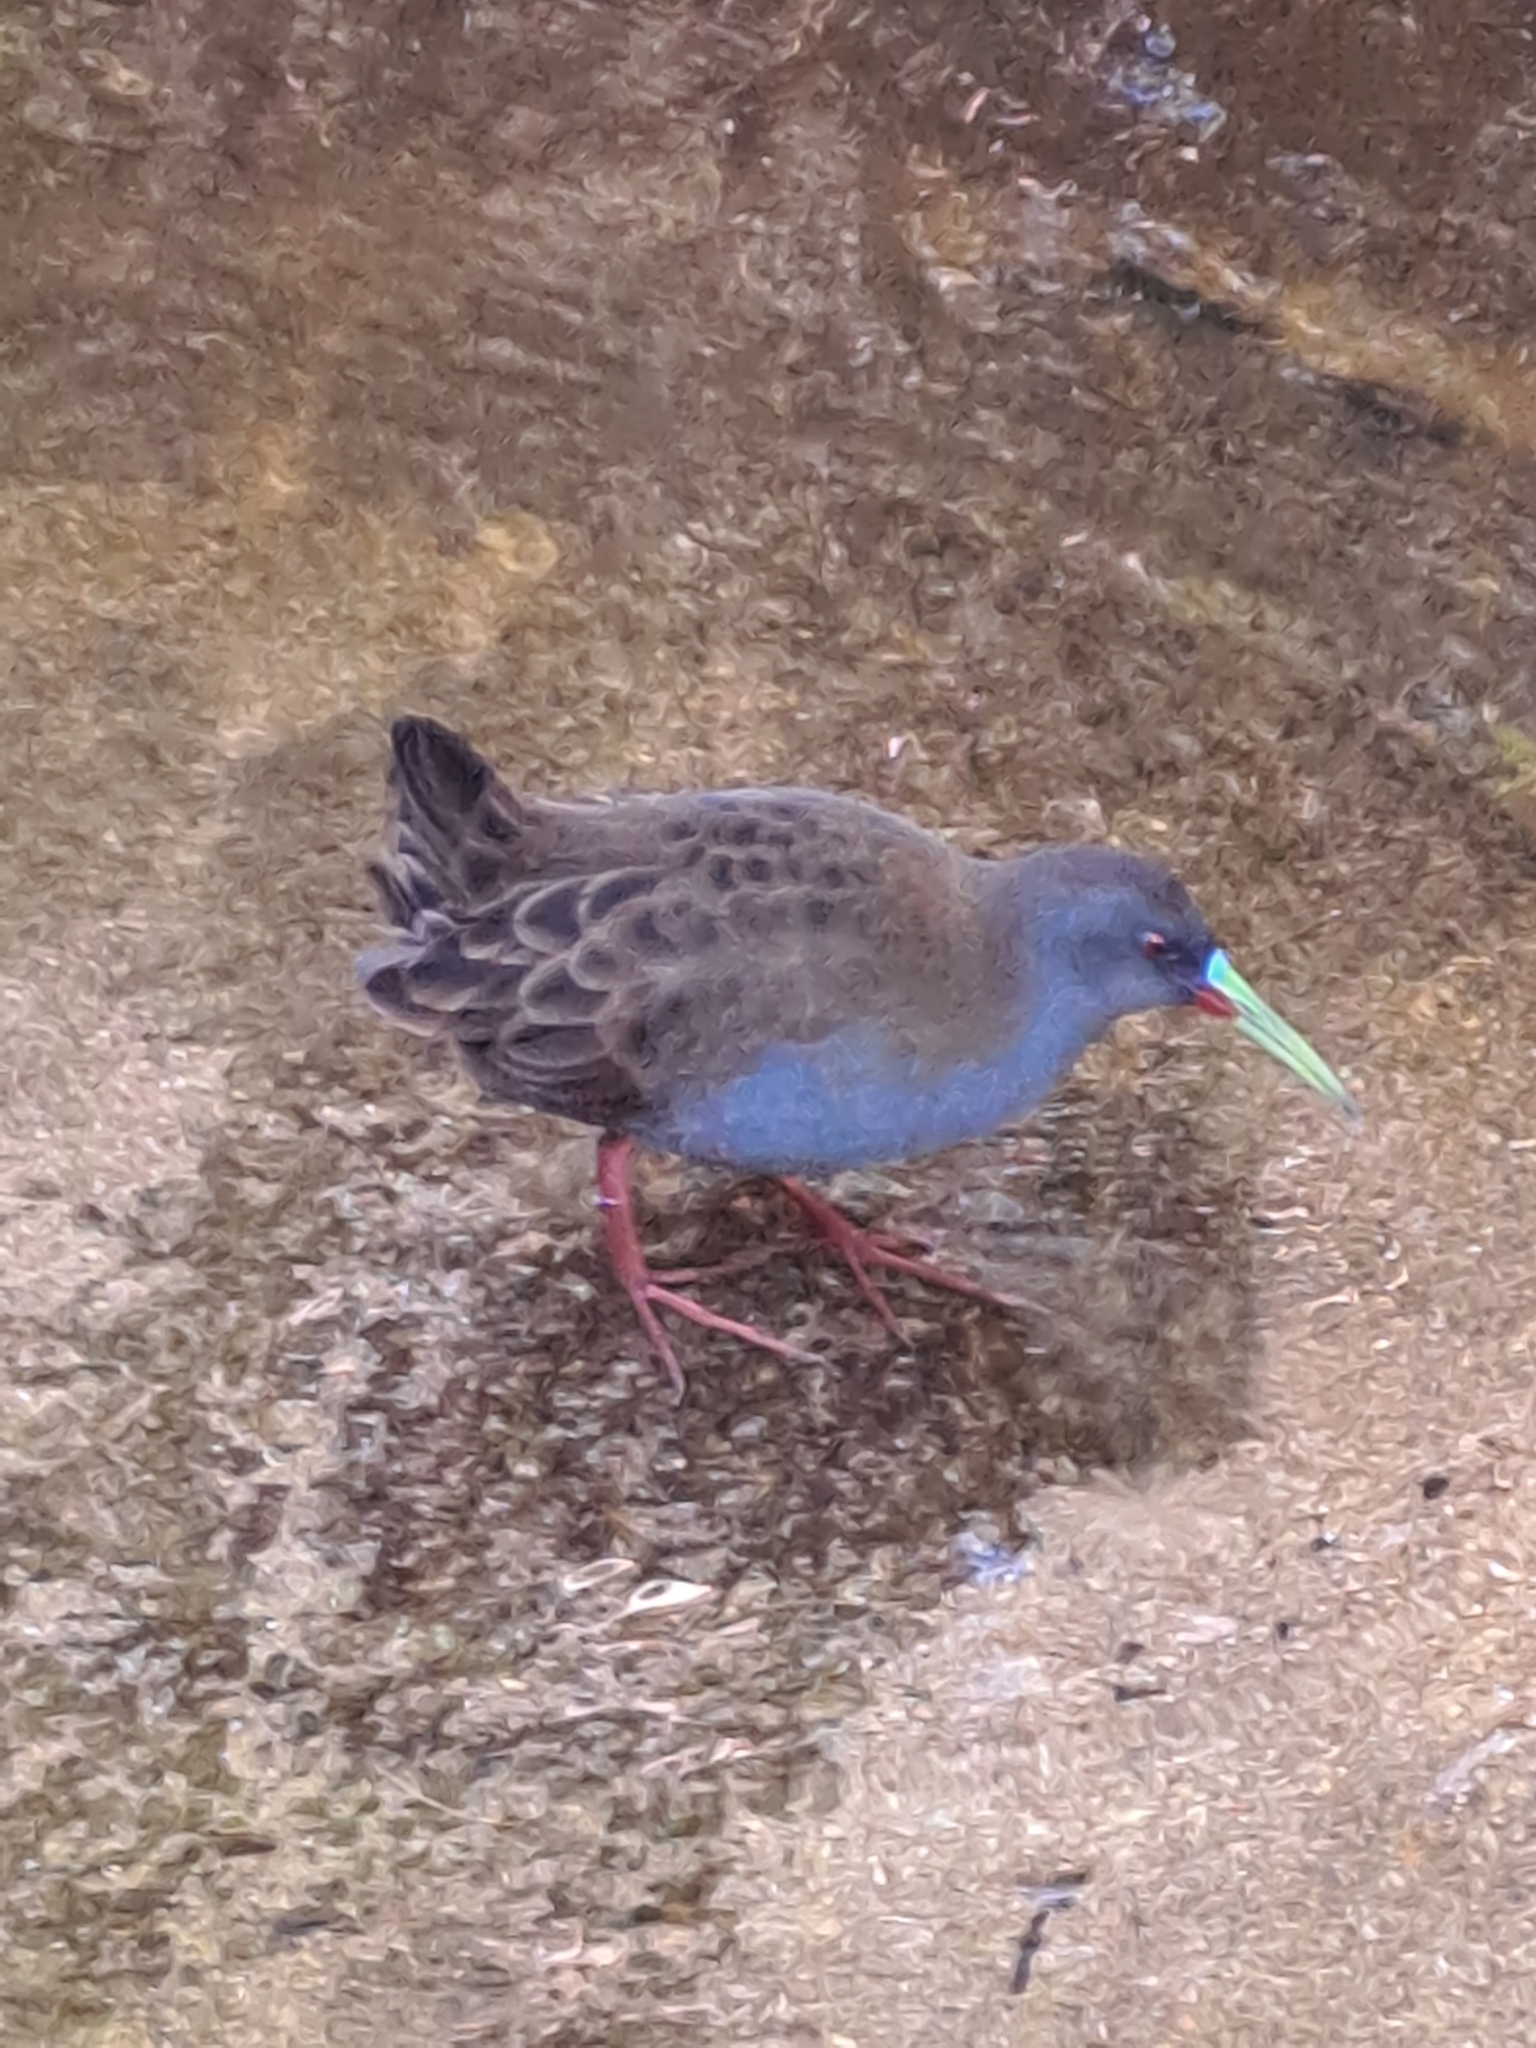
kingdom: Animalia
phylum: Chordata
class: Aves
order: Gruiformes
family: Rallidae
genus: Pardirallus
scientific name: Pardirallus sanguinolentus
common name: Plumbeous rail
